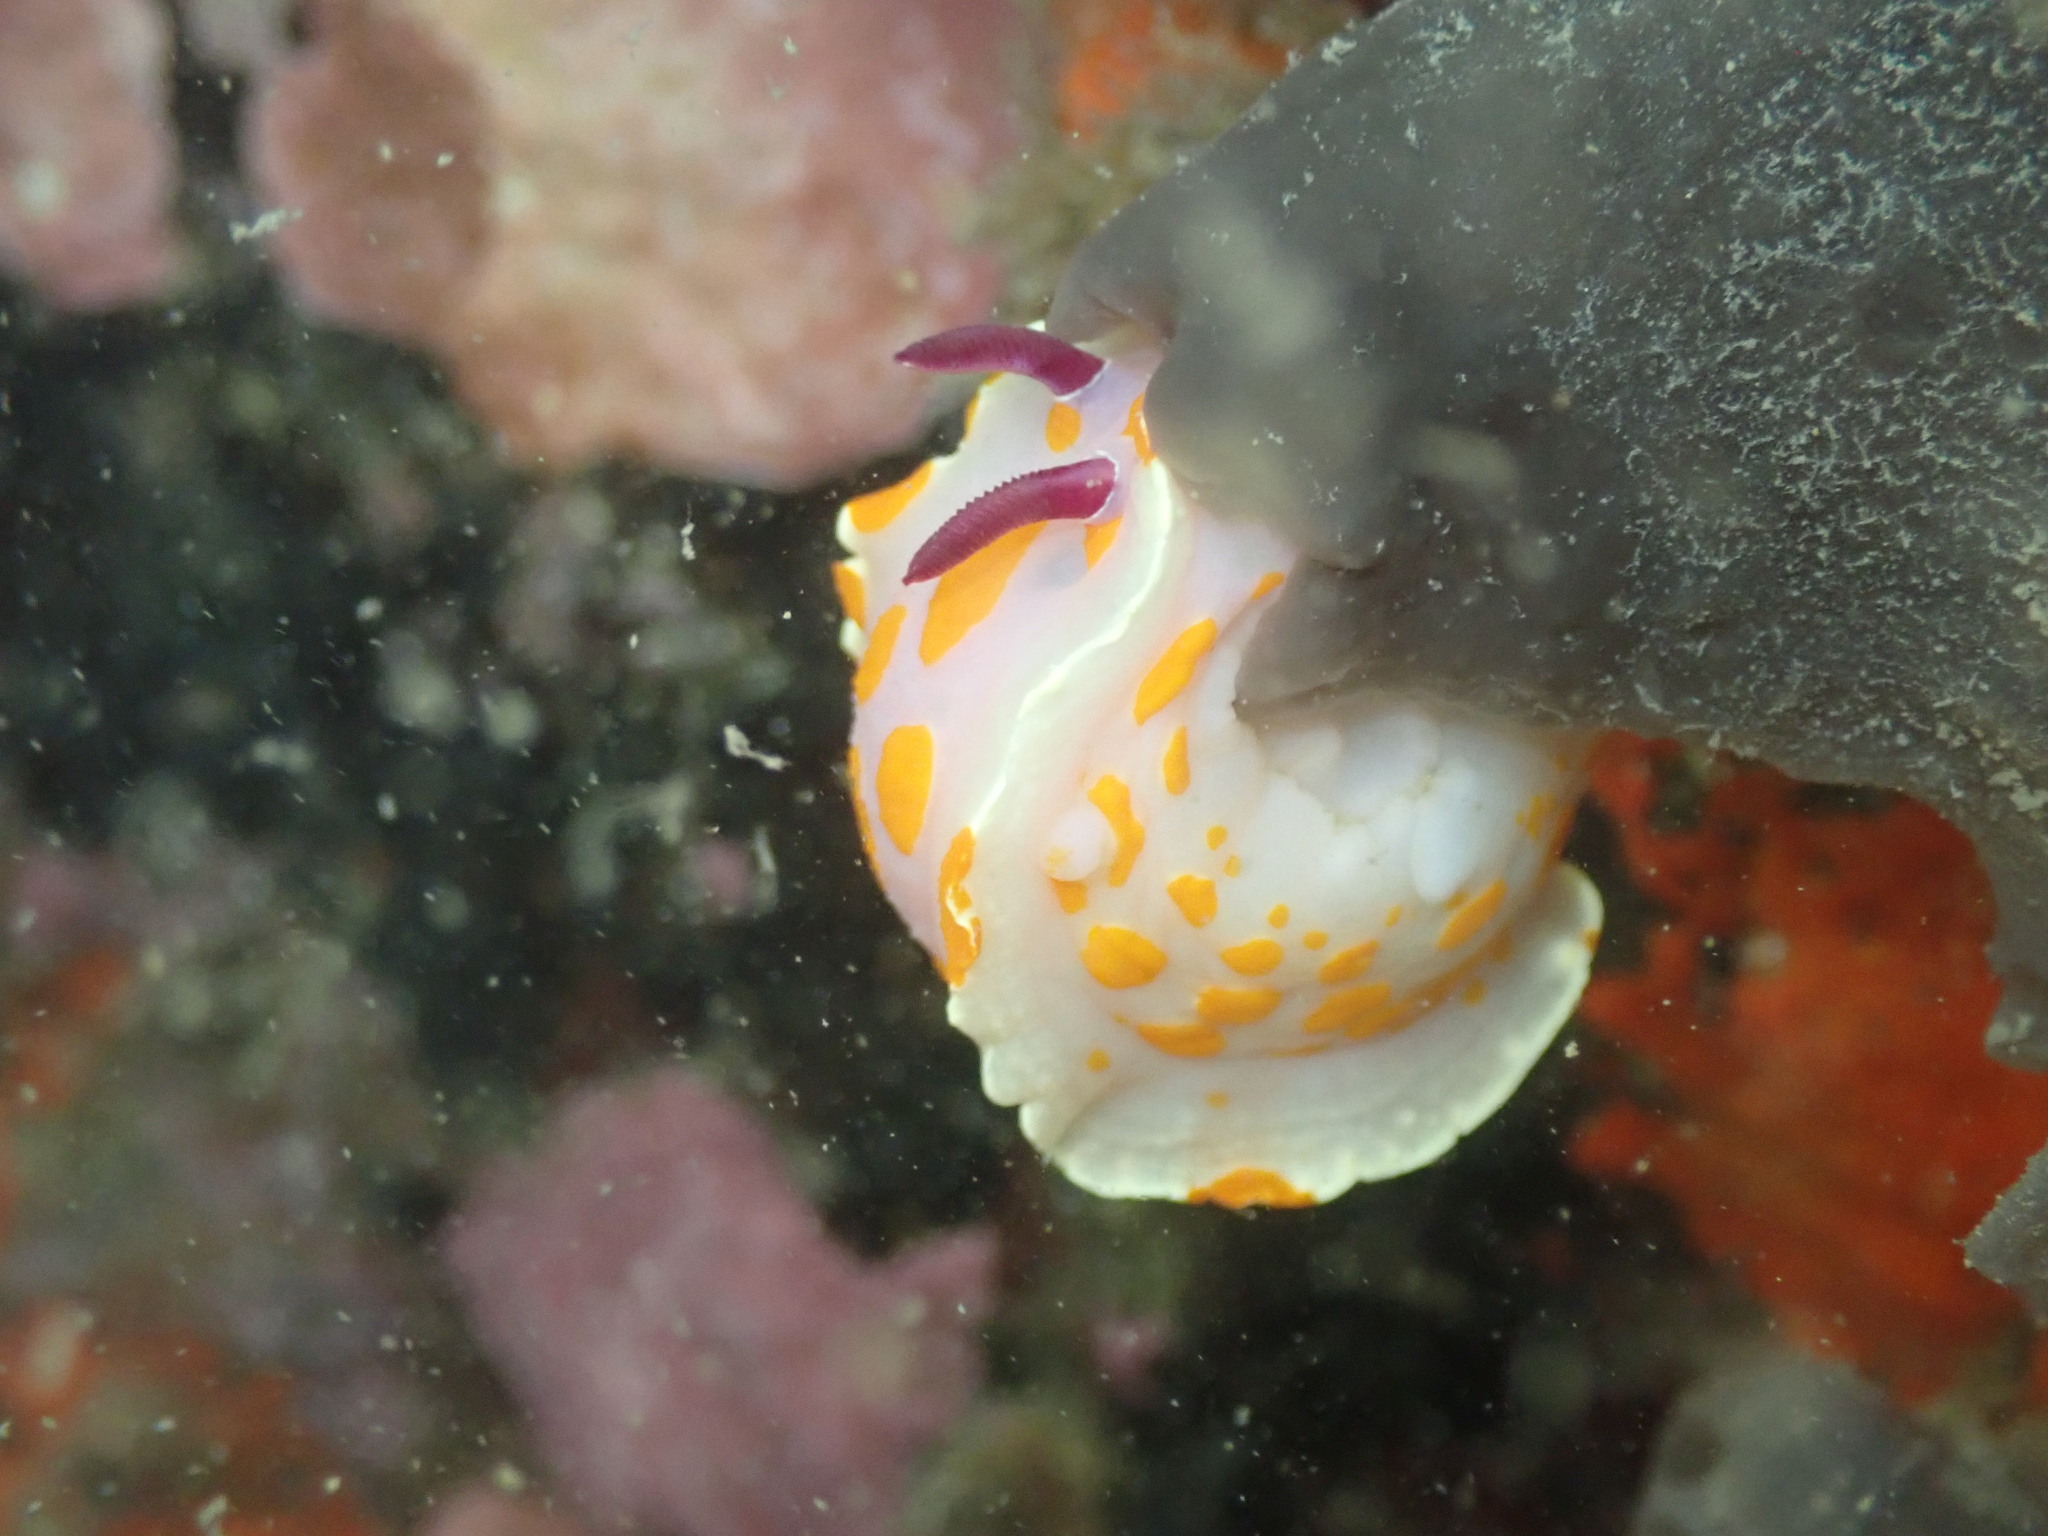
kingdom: Animalia
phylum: Mollusca
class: Gastropoda
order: Nudibranchia
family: Chromodorididae
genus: Ceratosoma
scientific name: Ceratosoma amoenum
